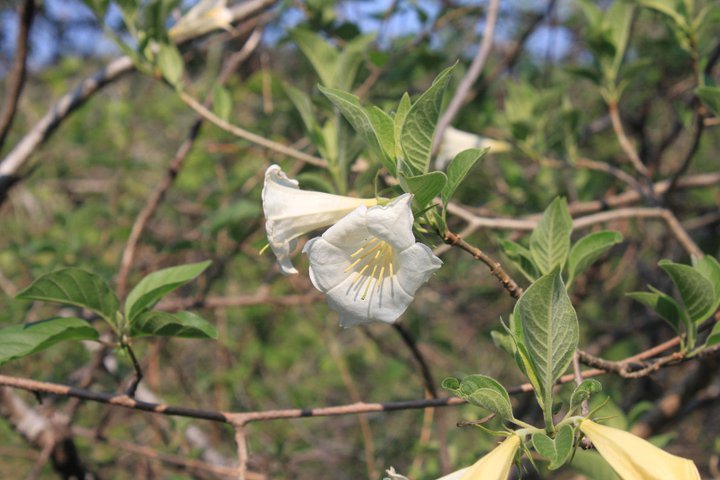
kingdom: Plantae
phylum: Tracheophyta
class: Magnoliopsida
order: Gentianales
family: Rubiaceae
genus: Hintonia
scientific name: Hintonia latiflora
